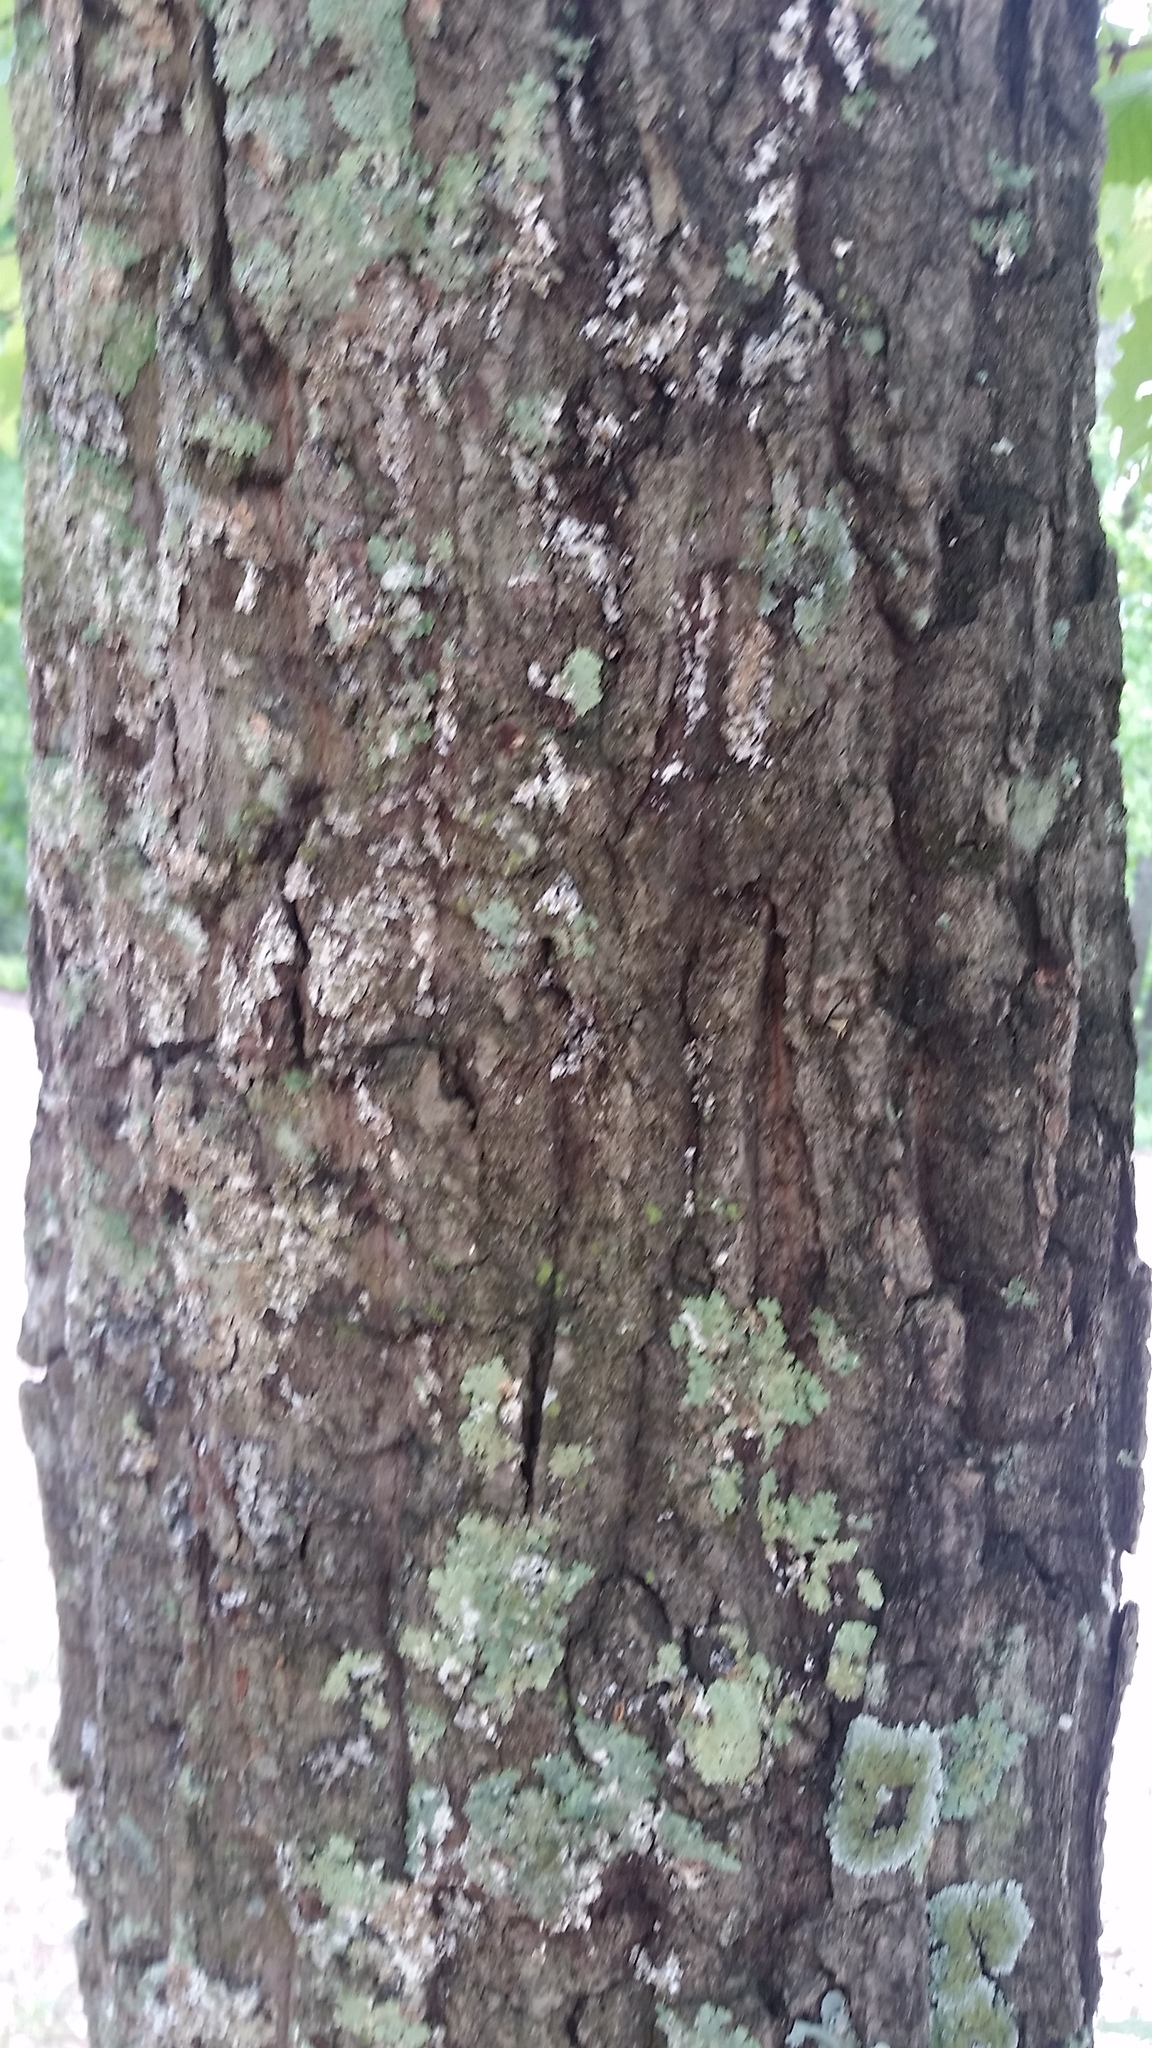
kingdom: Plantae
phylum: Tracheophyta
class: Magnoliopsida
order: Fagales
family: Fagaceae
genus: Quercus
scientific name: Quercus montana
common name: Chestnut oak
